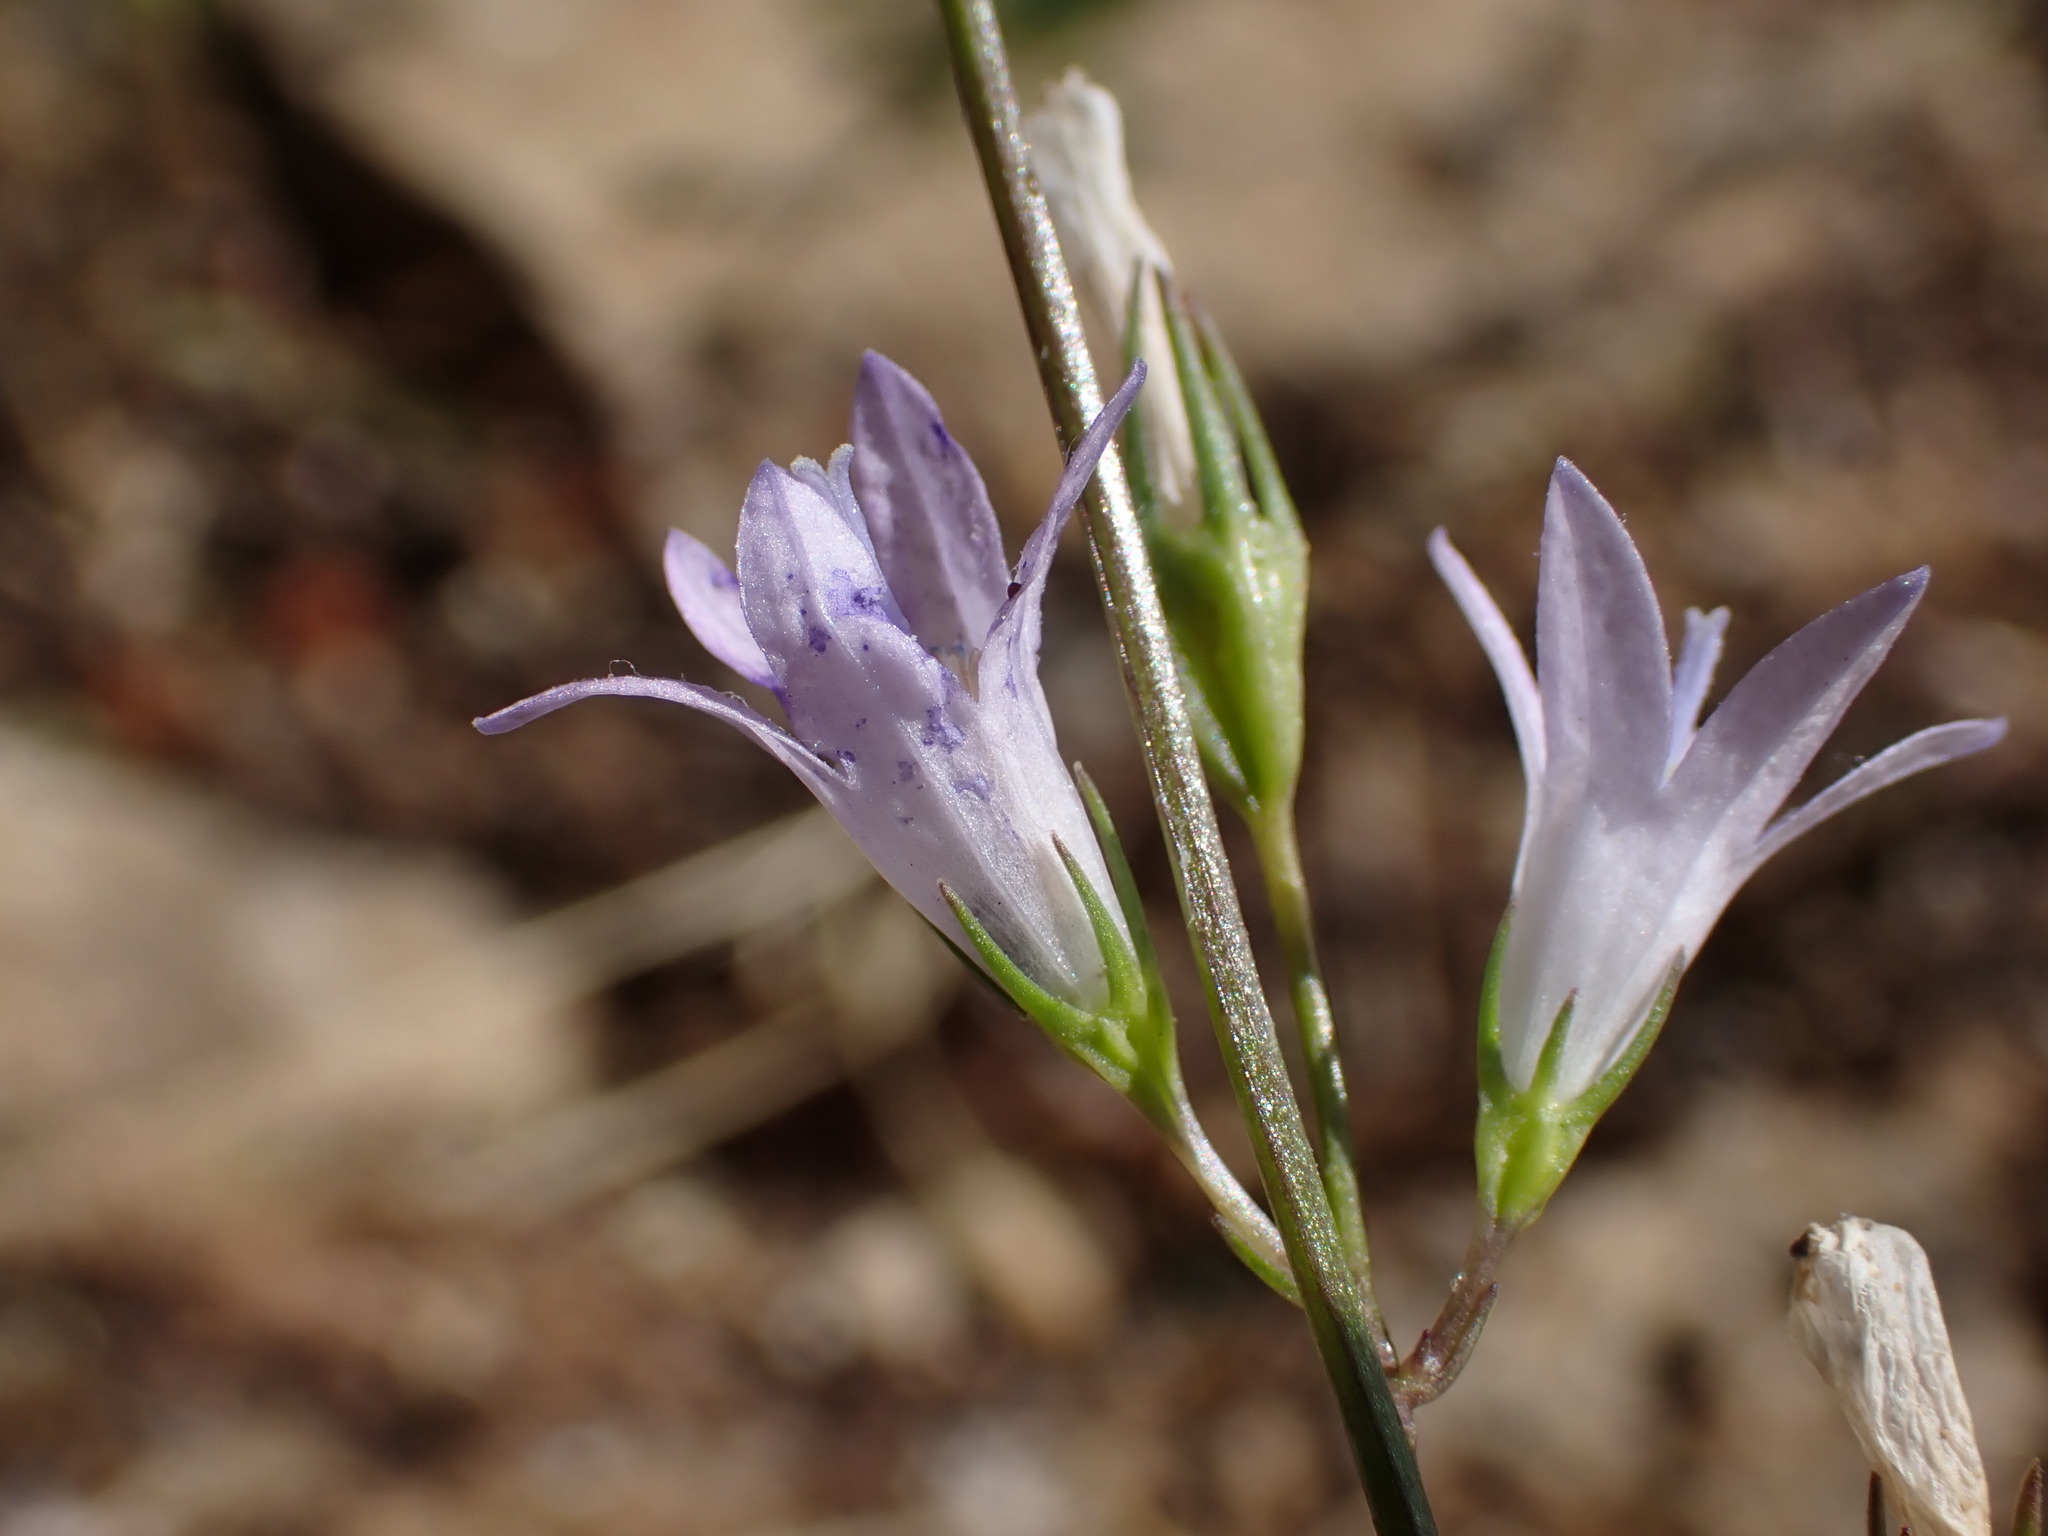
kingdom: Plantae
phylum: Tracheophyta
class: Magnoliopsida
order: Asterales
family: Campanulaceae
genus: Campanula
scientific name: Campanula rapunculus
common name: Rampion bellflower
